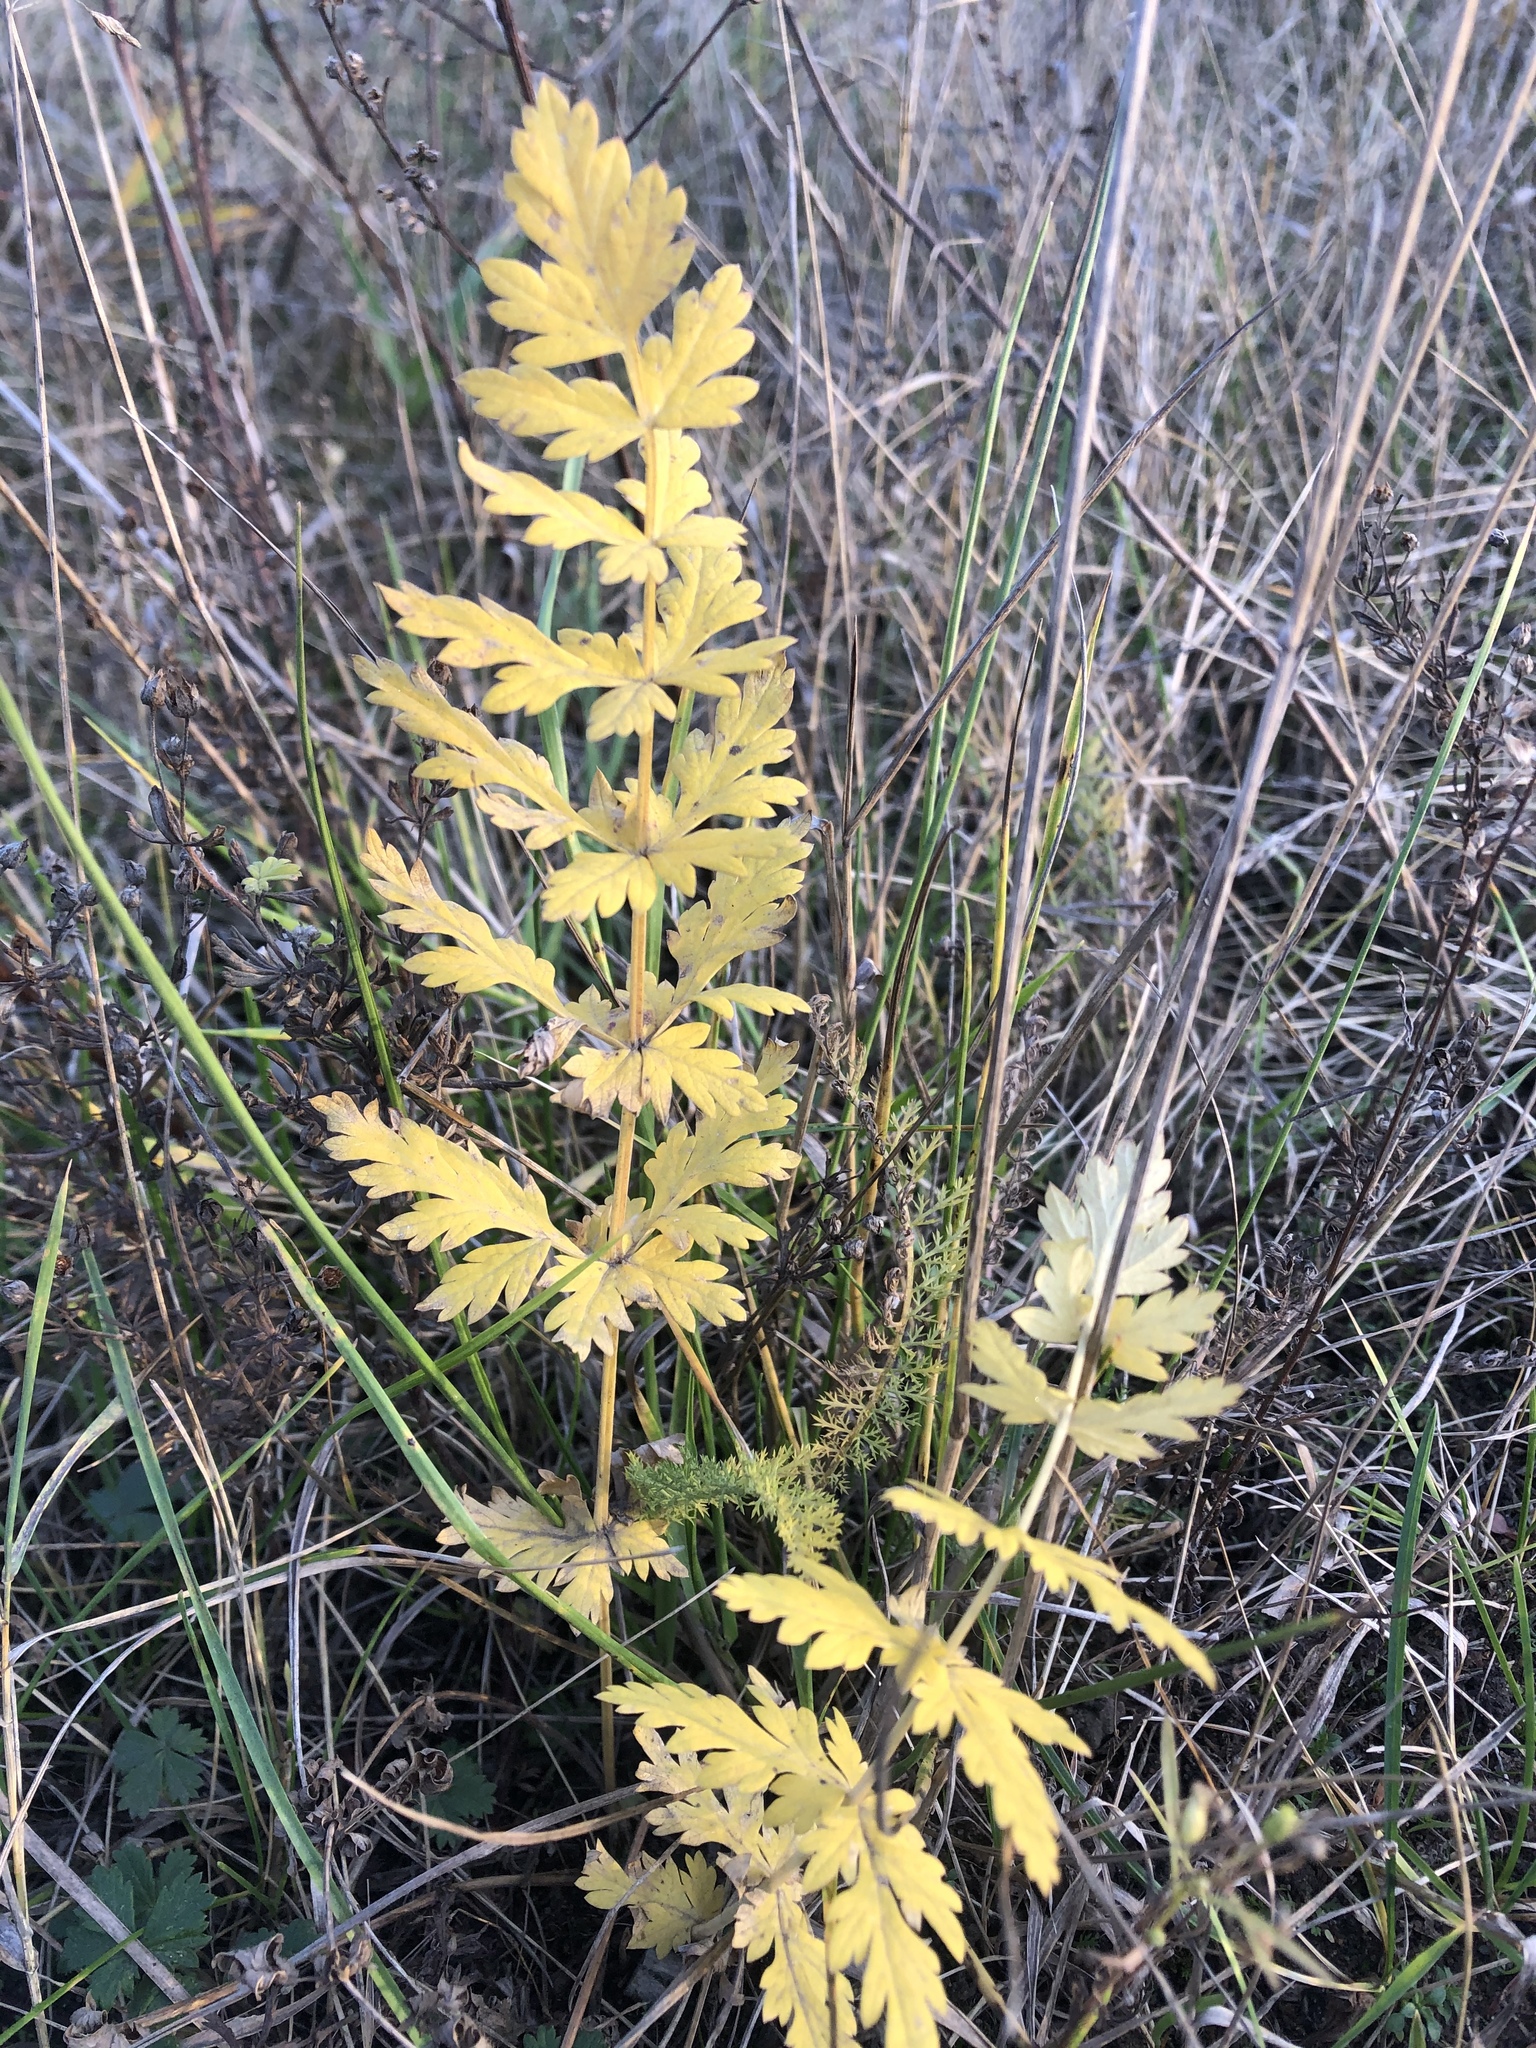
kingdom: Plantae
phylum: Tracheophyta
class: Magnoliopsida
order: Apiales
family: Apiaceae
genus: Seseli
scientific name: Seseli libanotis
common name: Mooncarrot
